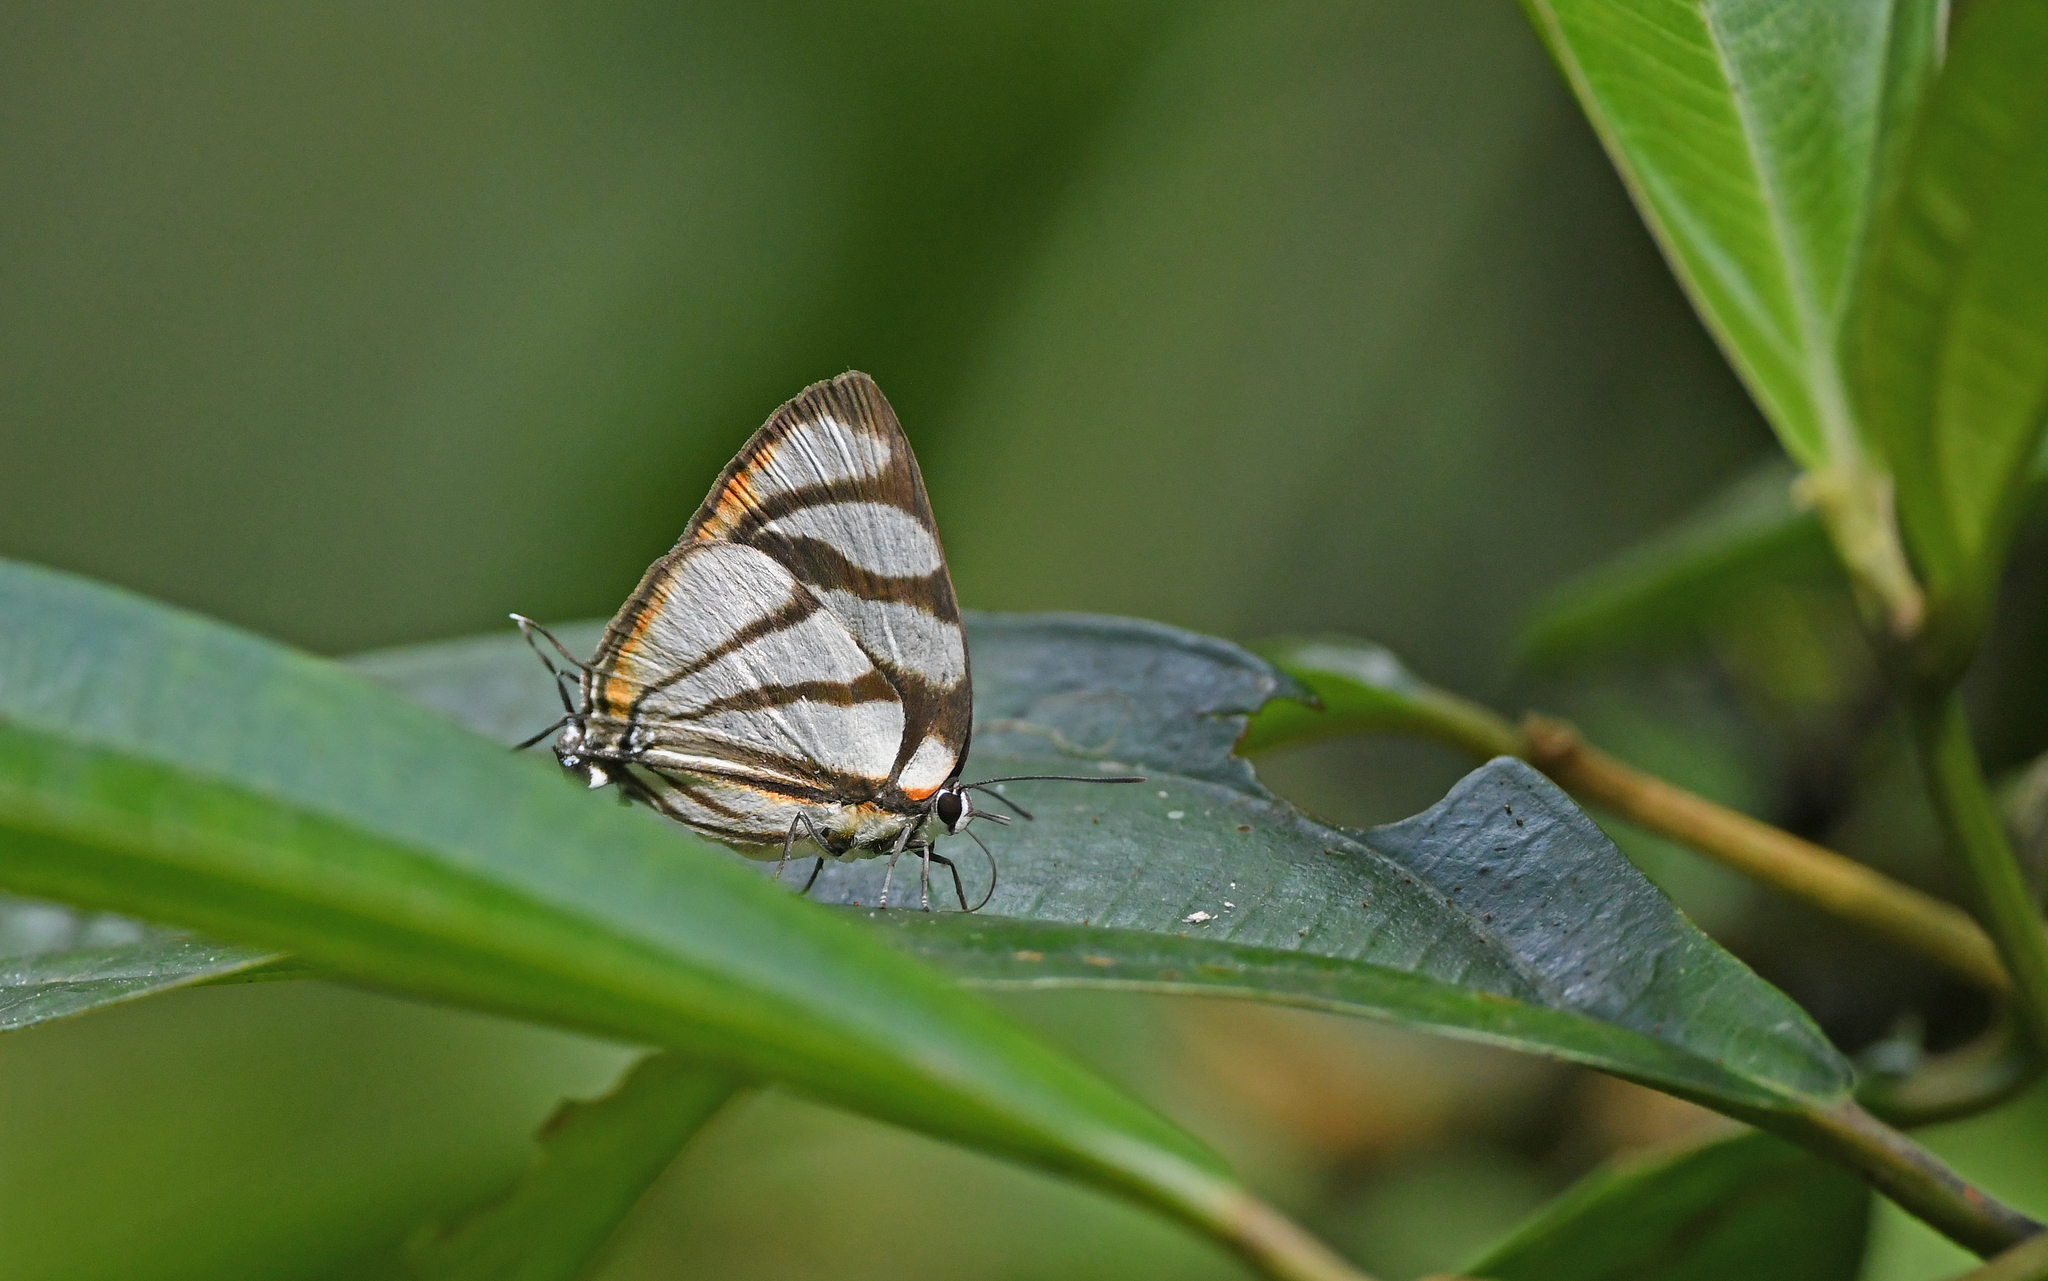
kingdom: Animalia
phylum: Arthropoda
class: Insecta
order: Lepidoptera
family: Lycaenidae
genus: Cycnus
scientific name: Cycnus phaleros
